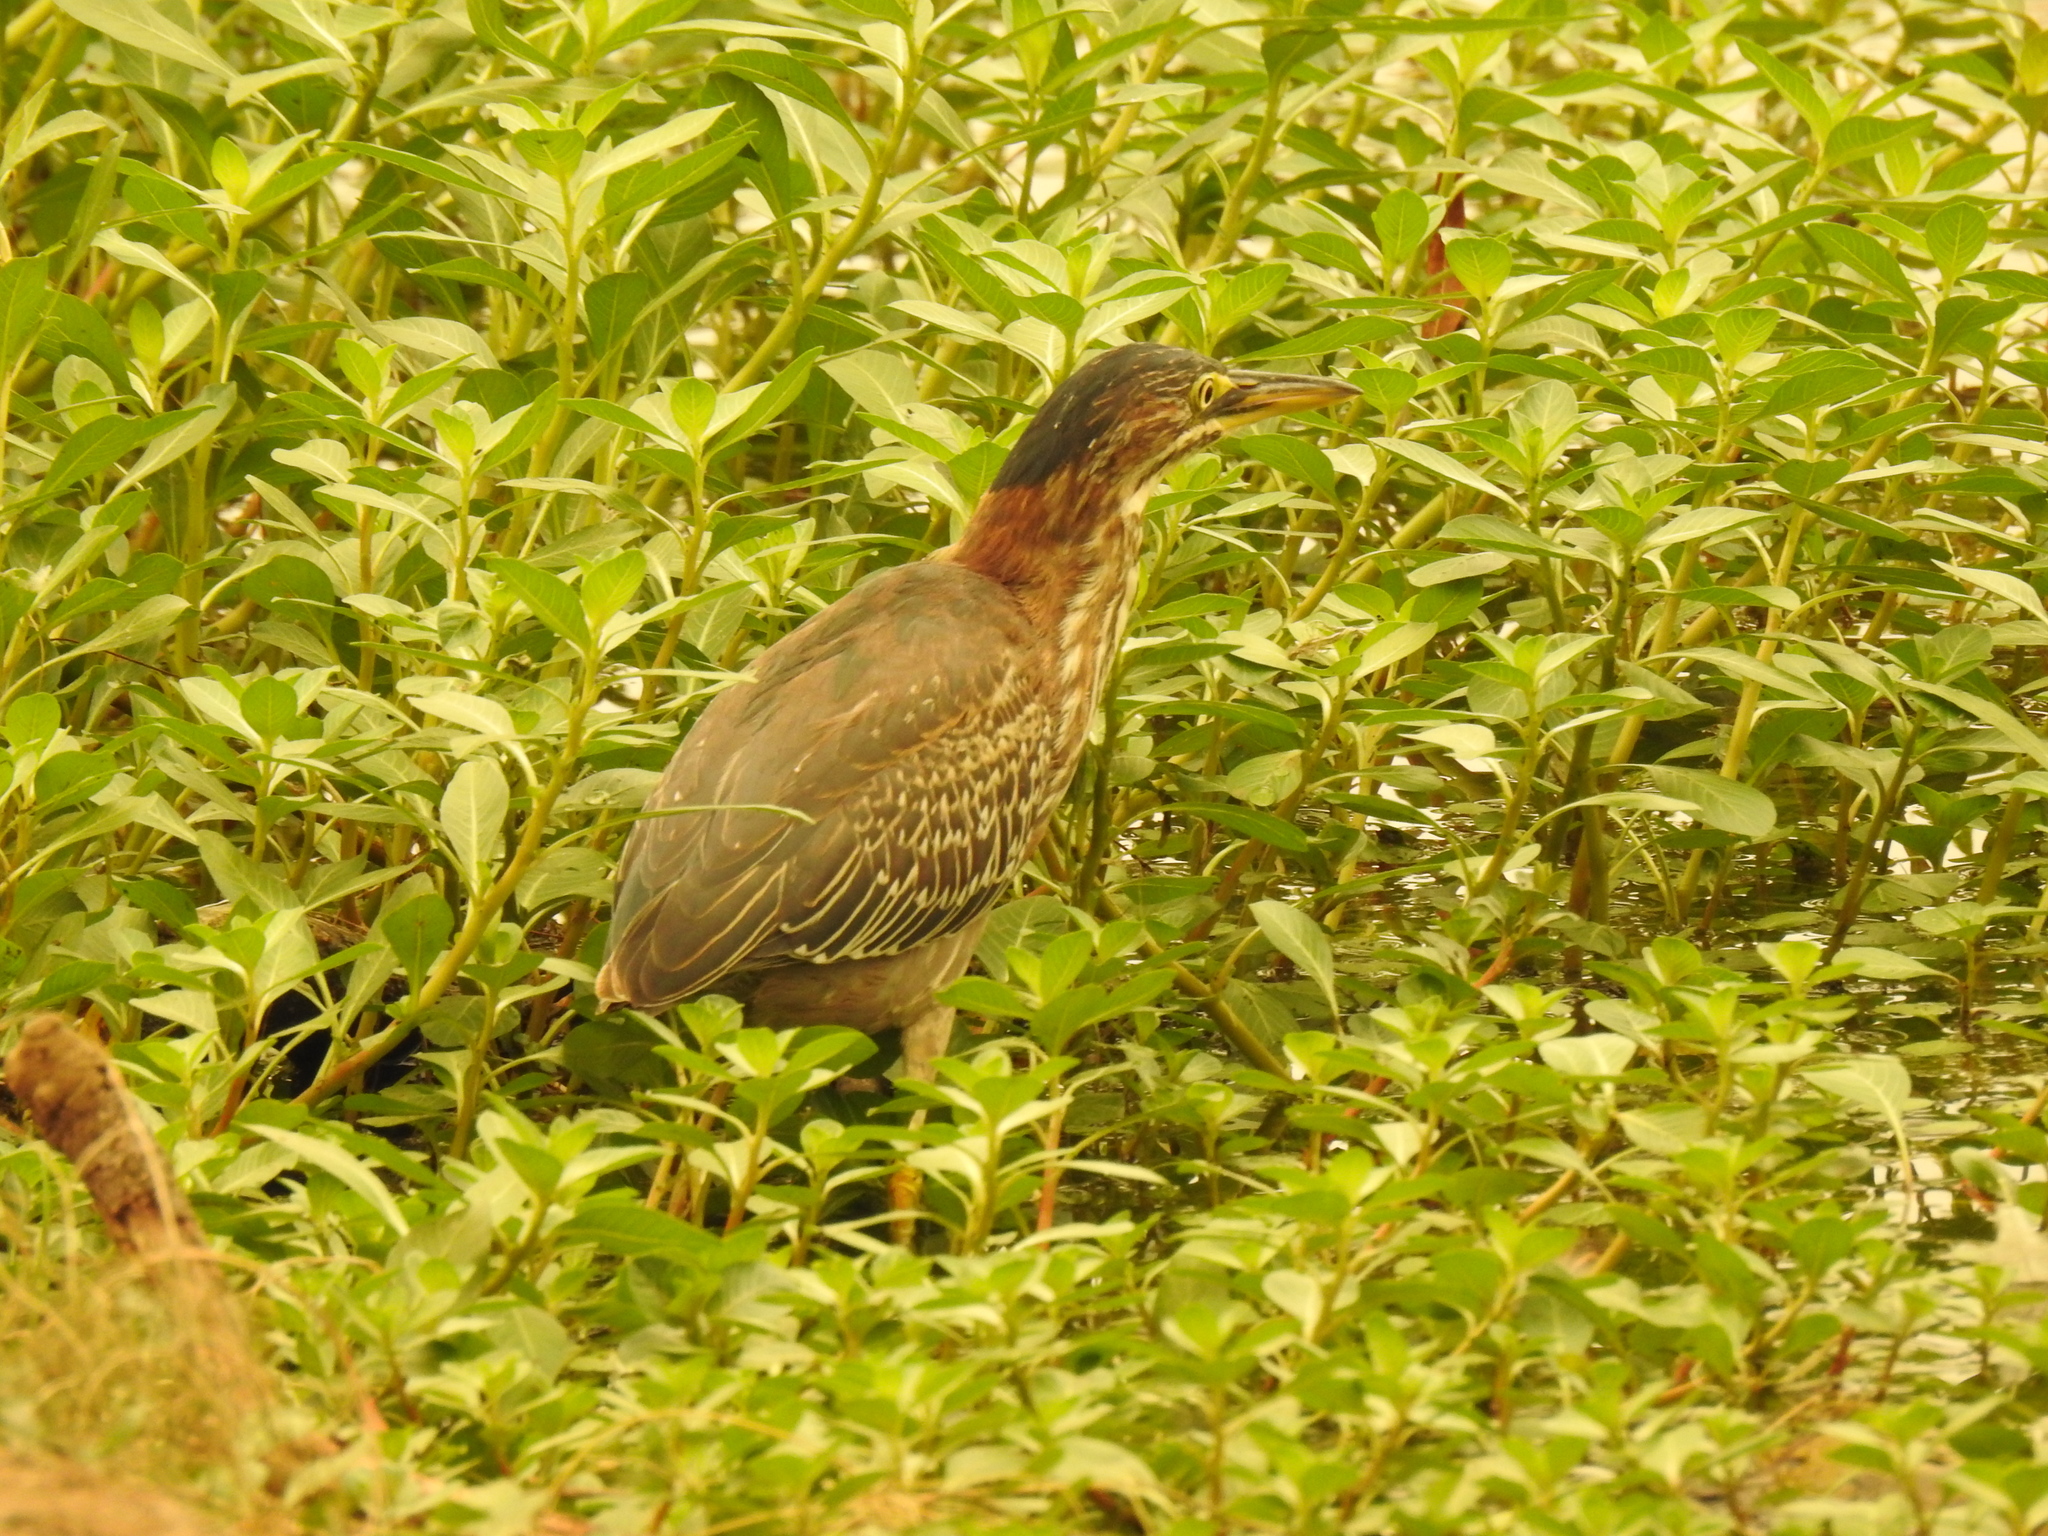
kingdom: Animalia
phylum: Chordata
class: Aves
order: Pelecaniformes
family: Ardeidae
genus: Butorides
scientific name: Butorides virescens
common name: Green heron
